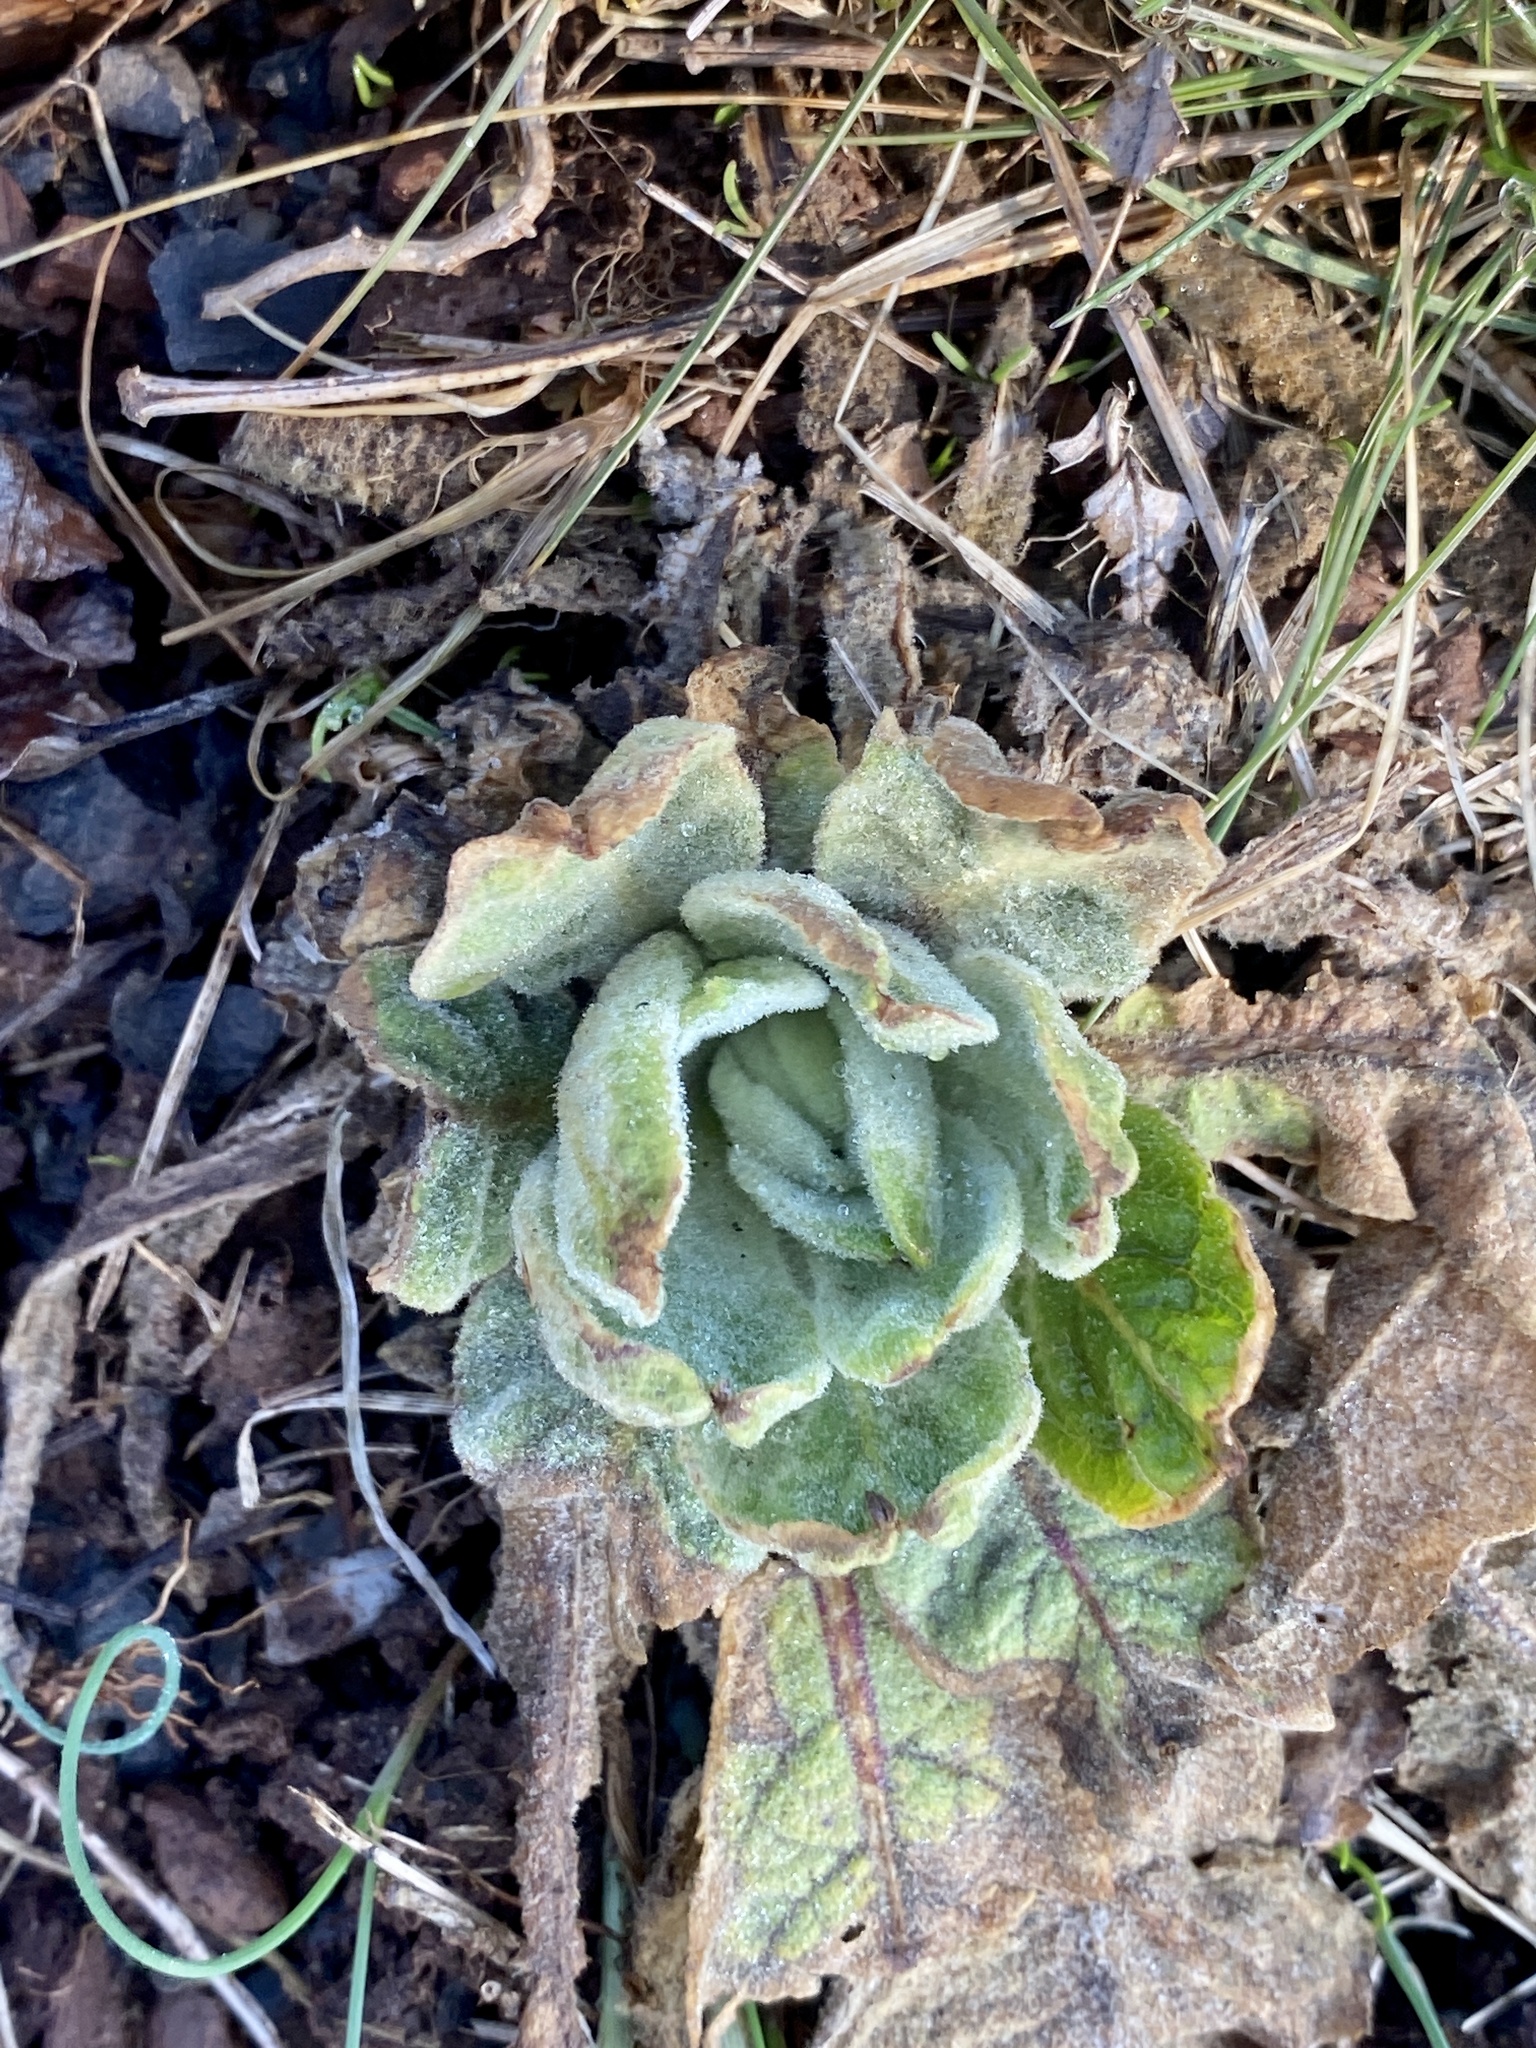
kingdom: Plantae
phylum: Tracheophyta
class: Magnoliopsida
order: Lamiales
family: Scrophulariaceae
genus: Verbascum
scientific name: Verbascum thapsus
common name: Common mullein
